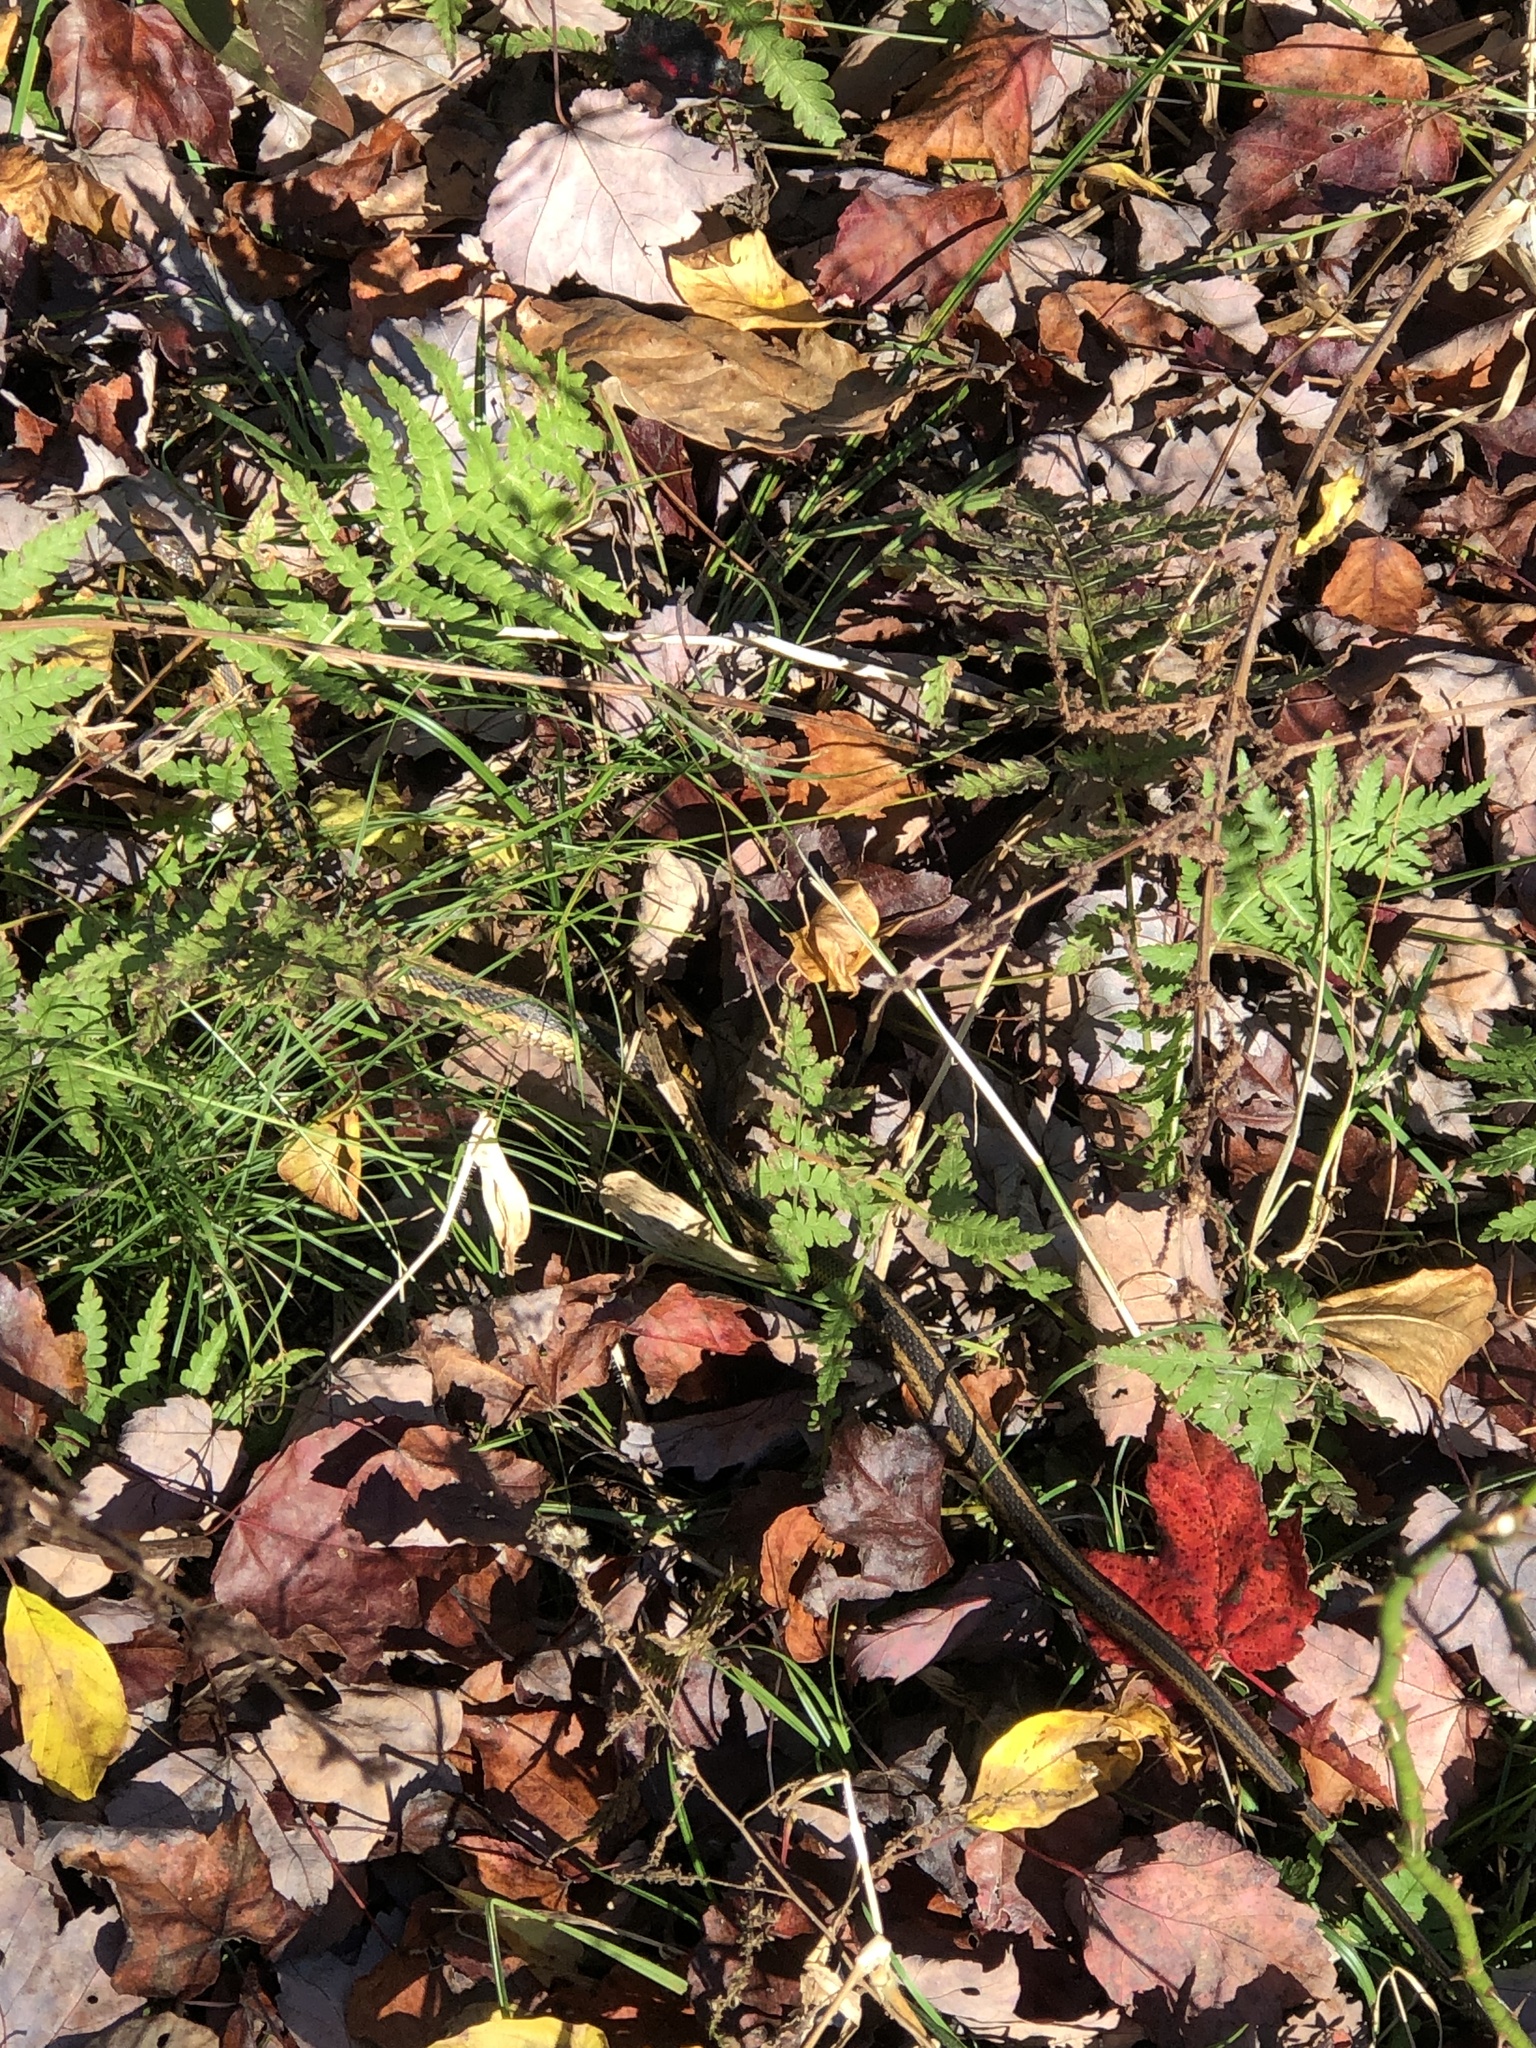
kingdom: Animalia
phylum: Chordata
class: Squamata
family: Colubridae
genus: Thamnophis
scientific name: Thamnophis sirtalis
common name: Common garter snake
